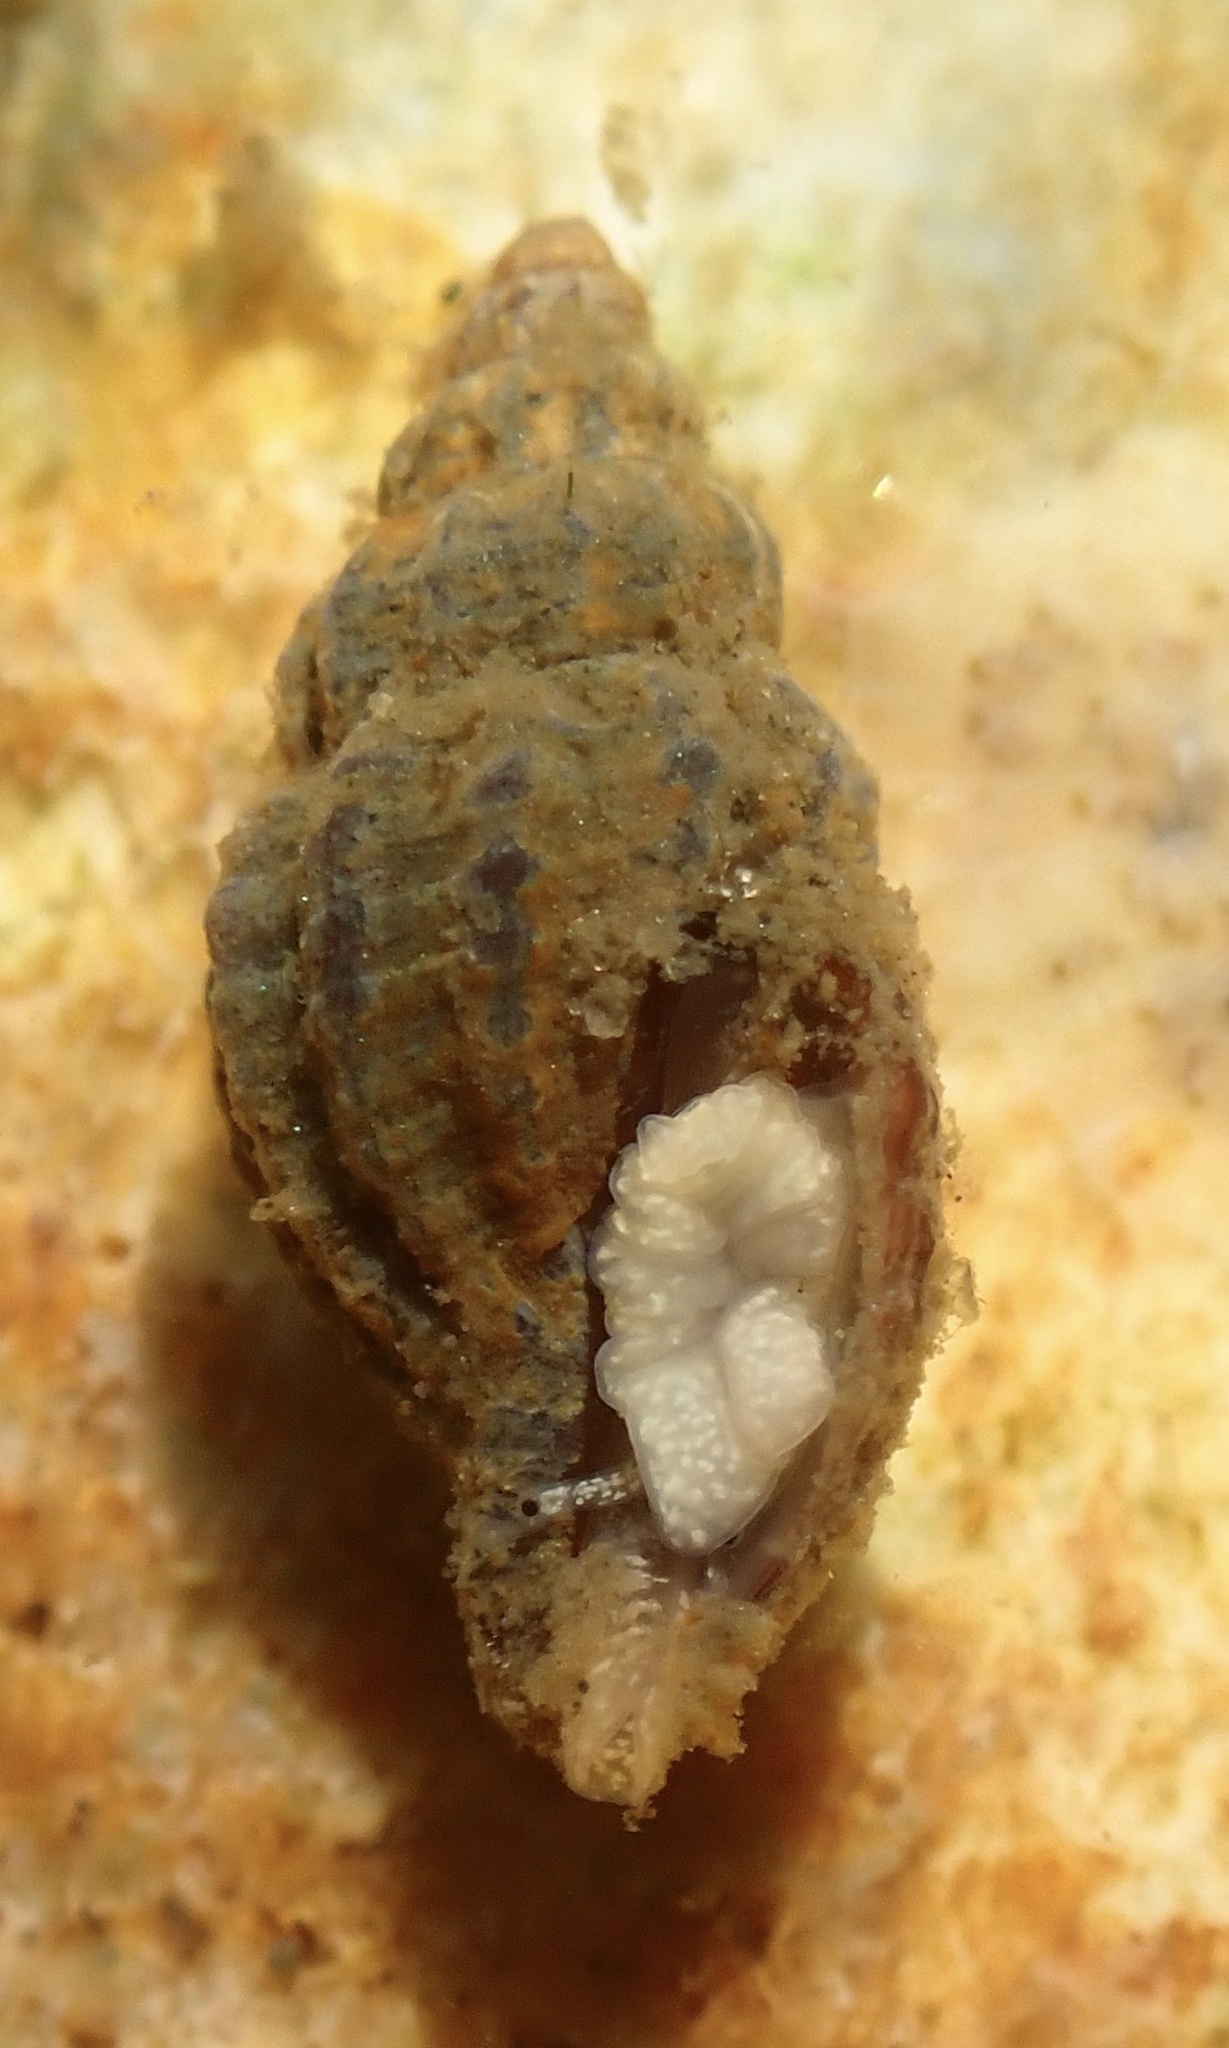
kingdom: Animalia
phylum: Mollusca
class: Gastropoda
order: Neogastropoda
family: Mangeliidae
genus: Pyrgocythara
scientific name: Pyrgocythara plicosa
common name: Plicate mangelia
